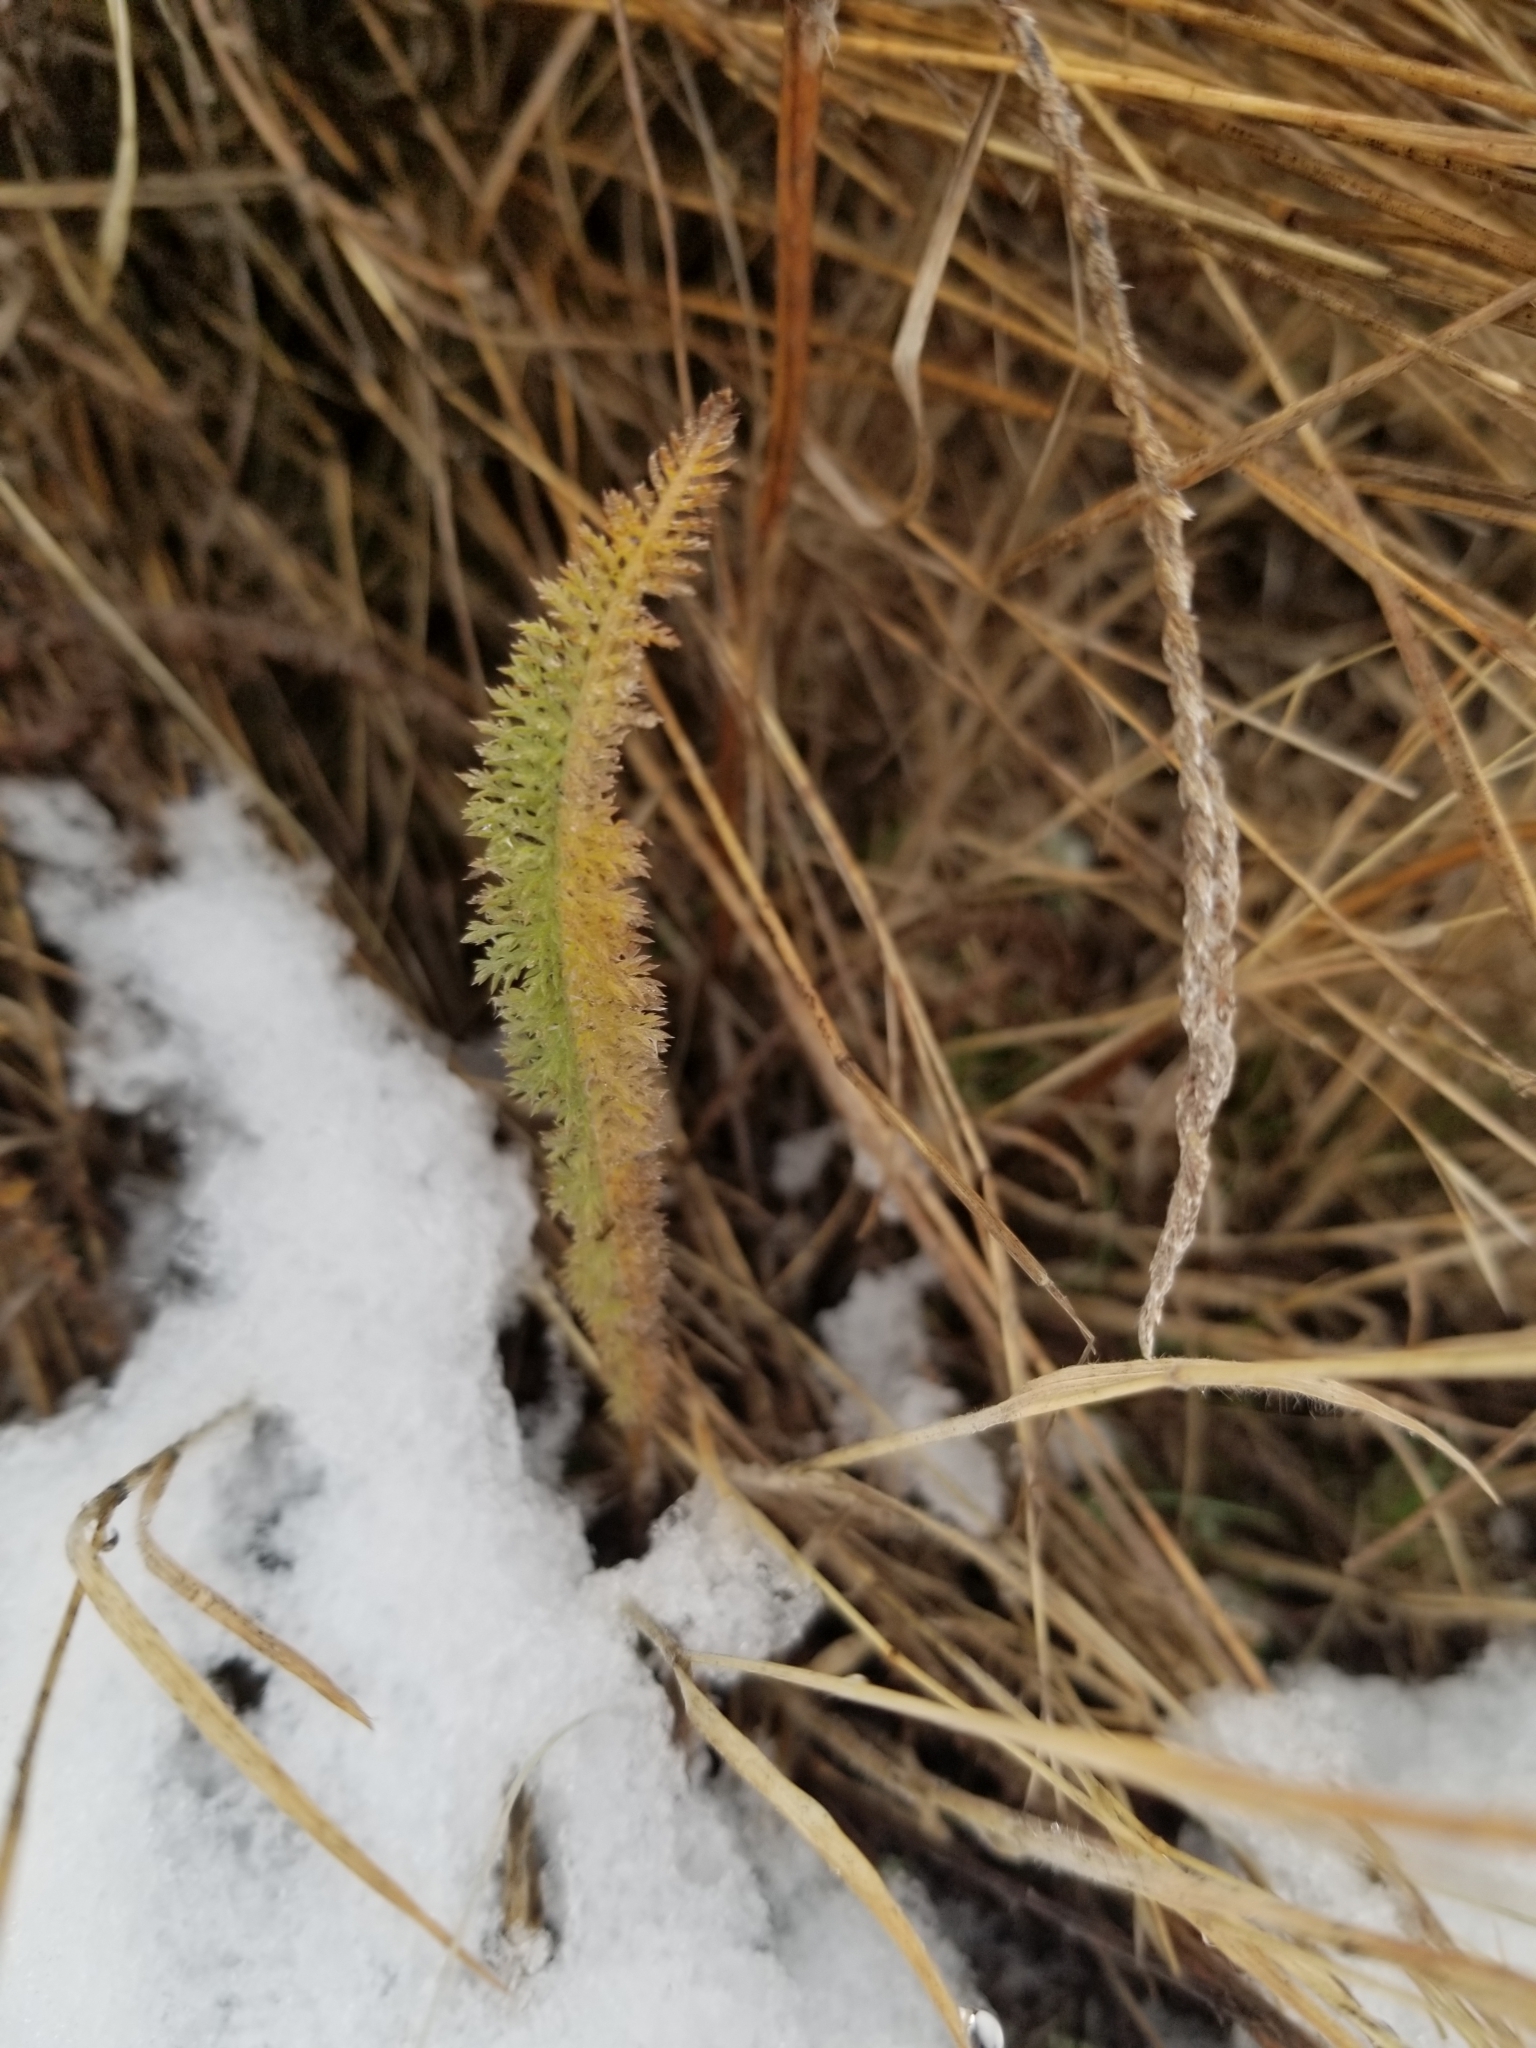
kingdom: Plantae
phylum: Tracheophyta
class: Magnoliopsida
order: Asterales
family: Asteraceae
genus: Achillea
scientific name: Achillea millefolium
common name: Yarrow
